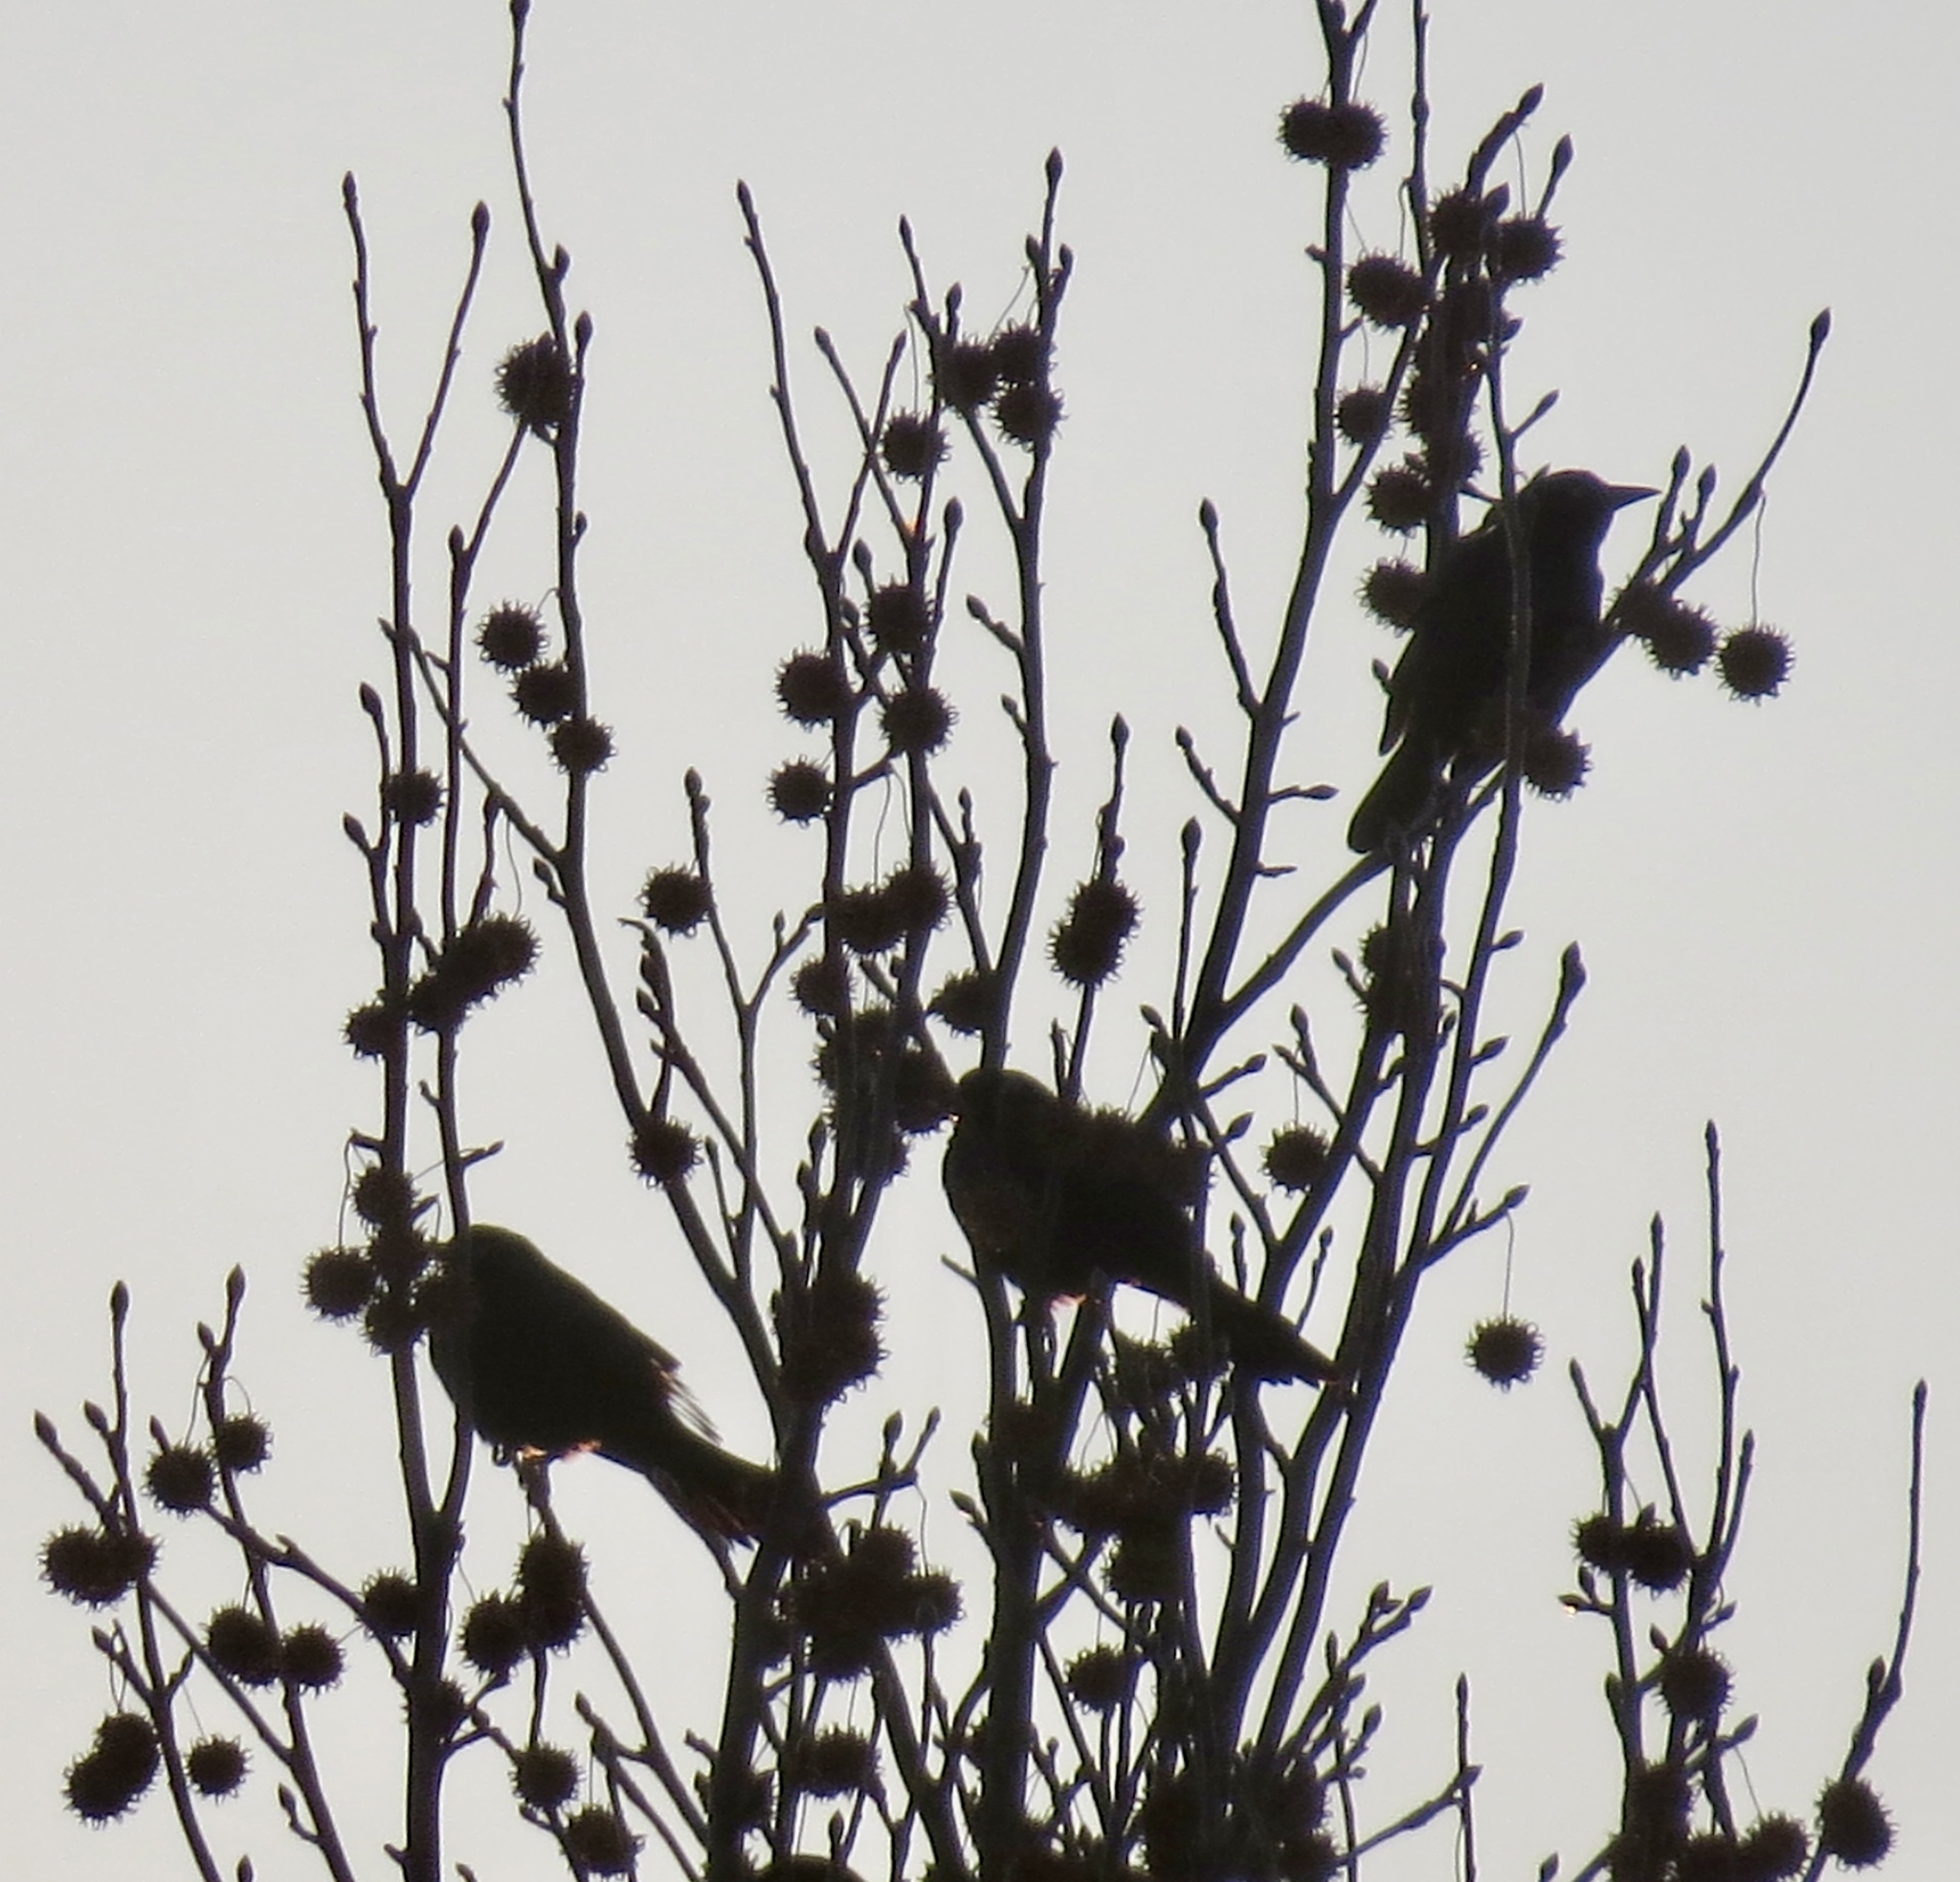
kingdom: Plantae
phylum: Tracheophyta
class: Magnoliopsida
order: Saxifragales
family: Altingiaceae
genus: Liquidambar
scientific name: Liquidambar styraciflua
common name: Sweet gum
